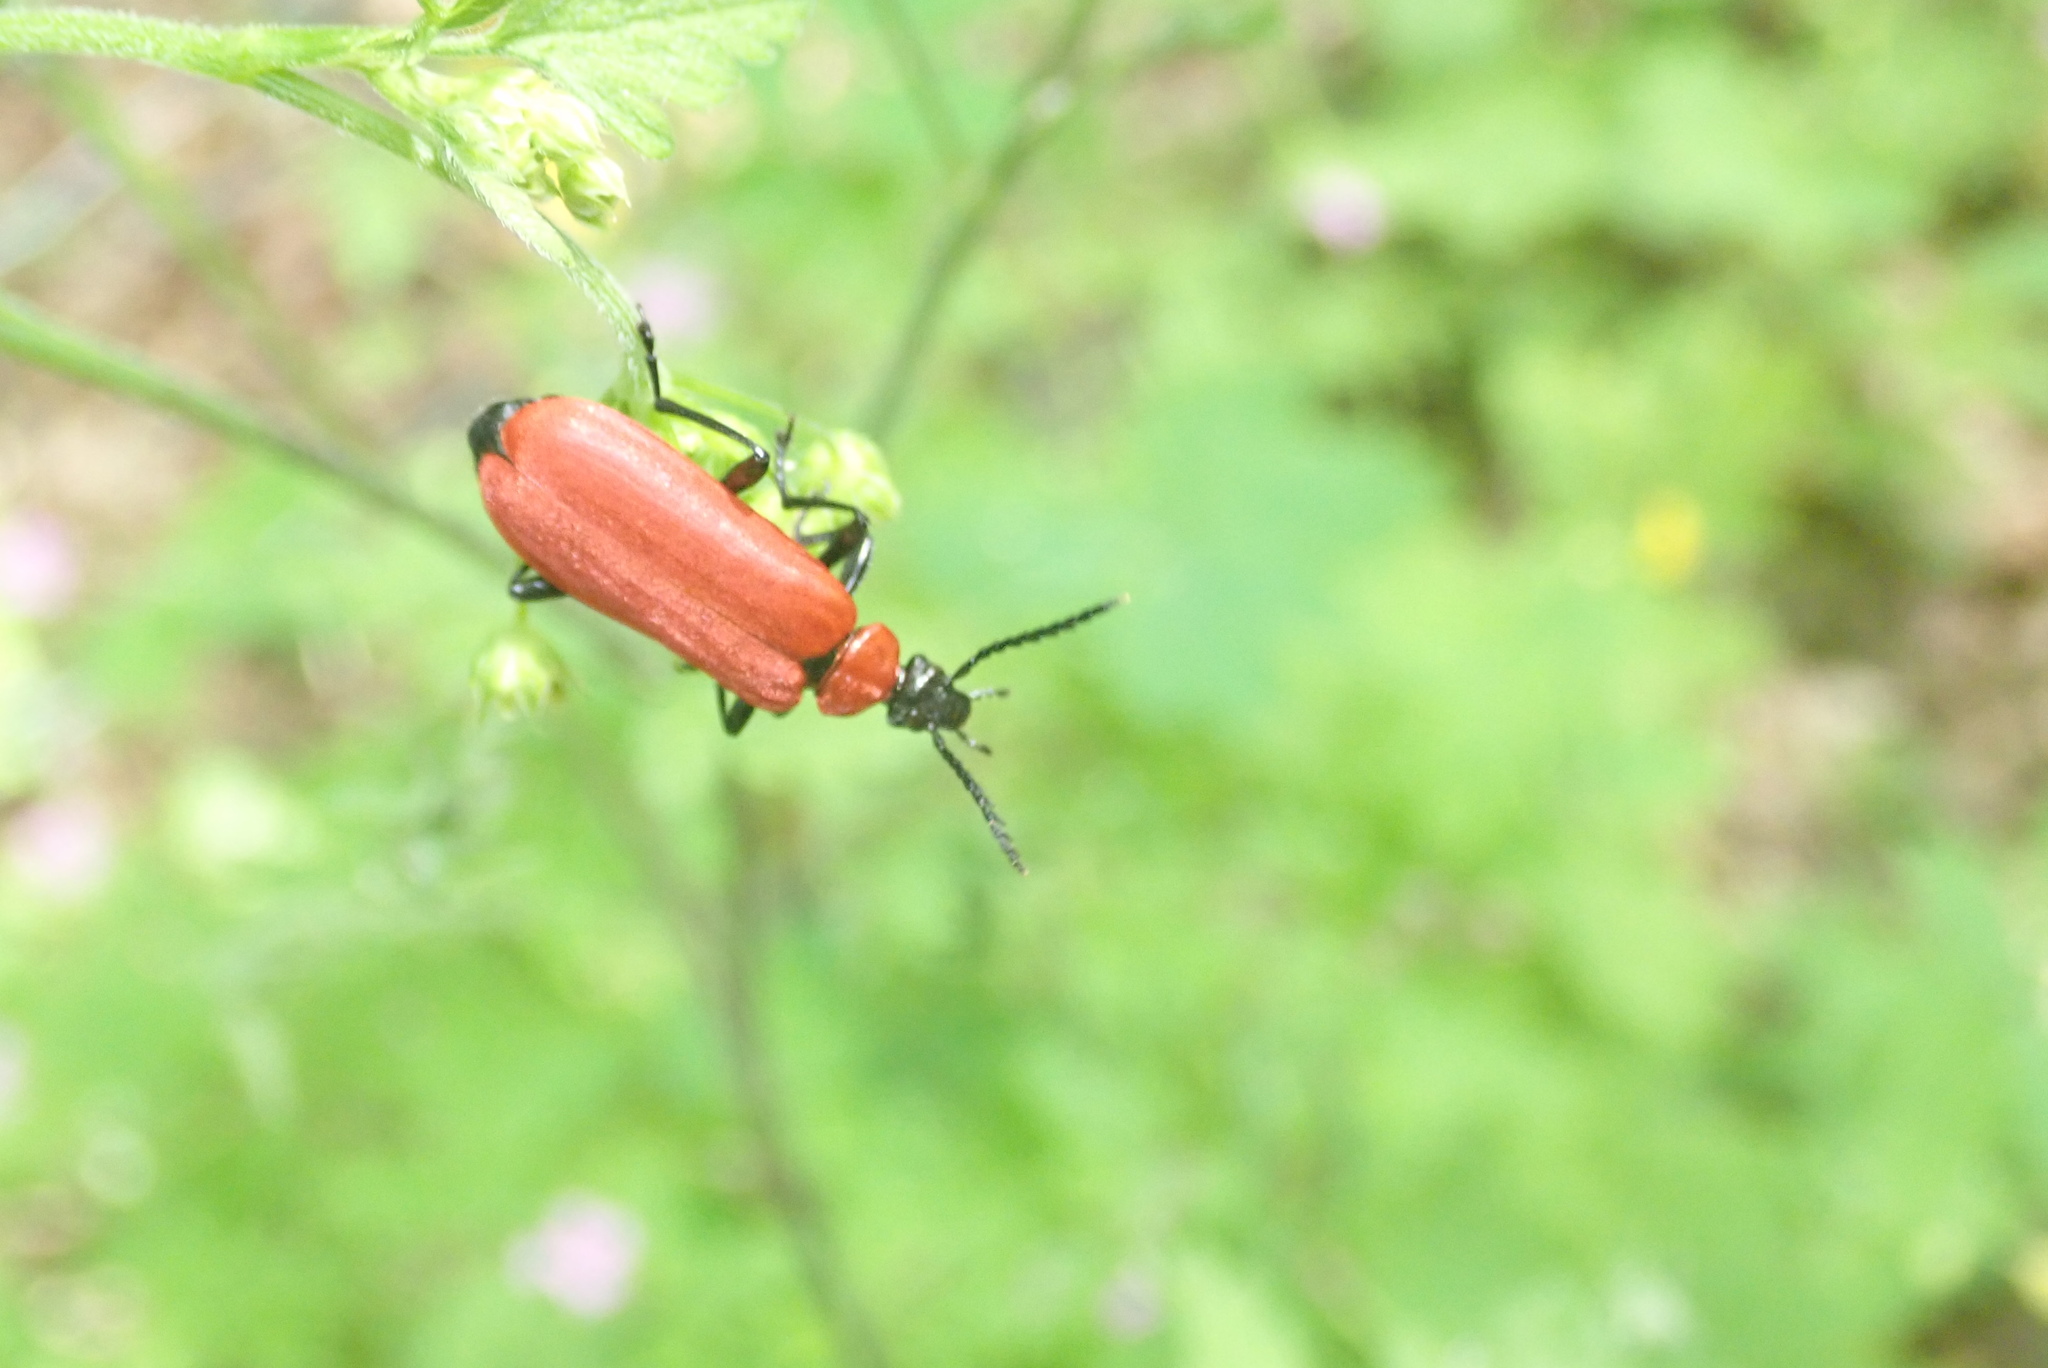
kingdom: Animalia
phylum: Arthropoda
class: Insecta
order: Coleoptera
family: Pyrochroidae
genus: Pyrochroa
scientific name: Pyrochroa coccinea
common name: Black-headed cardinal beetle
